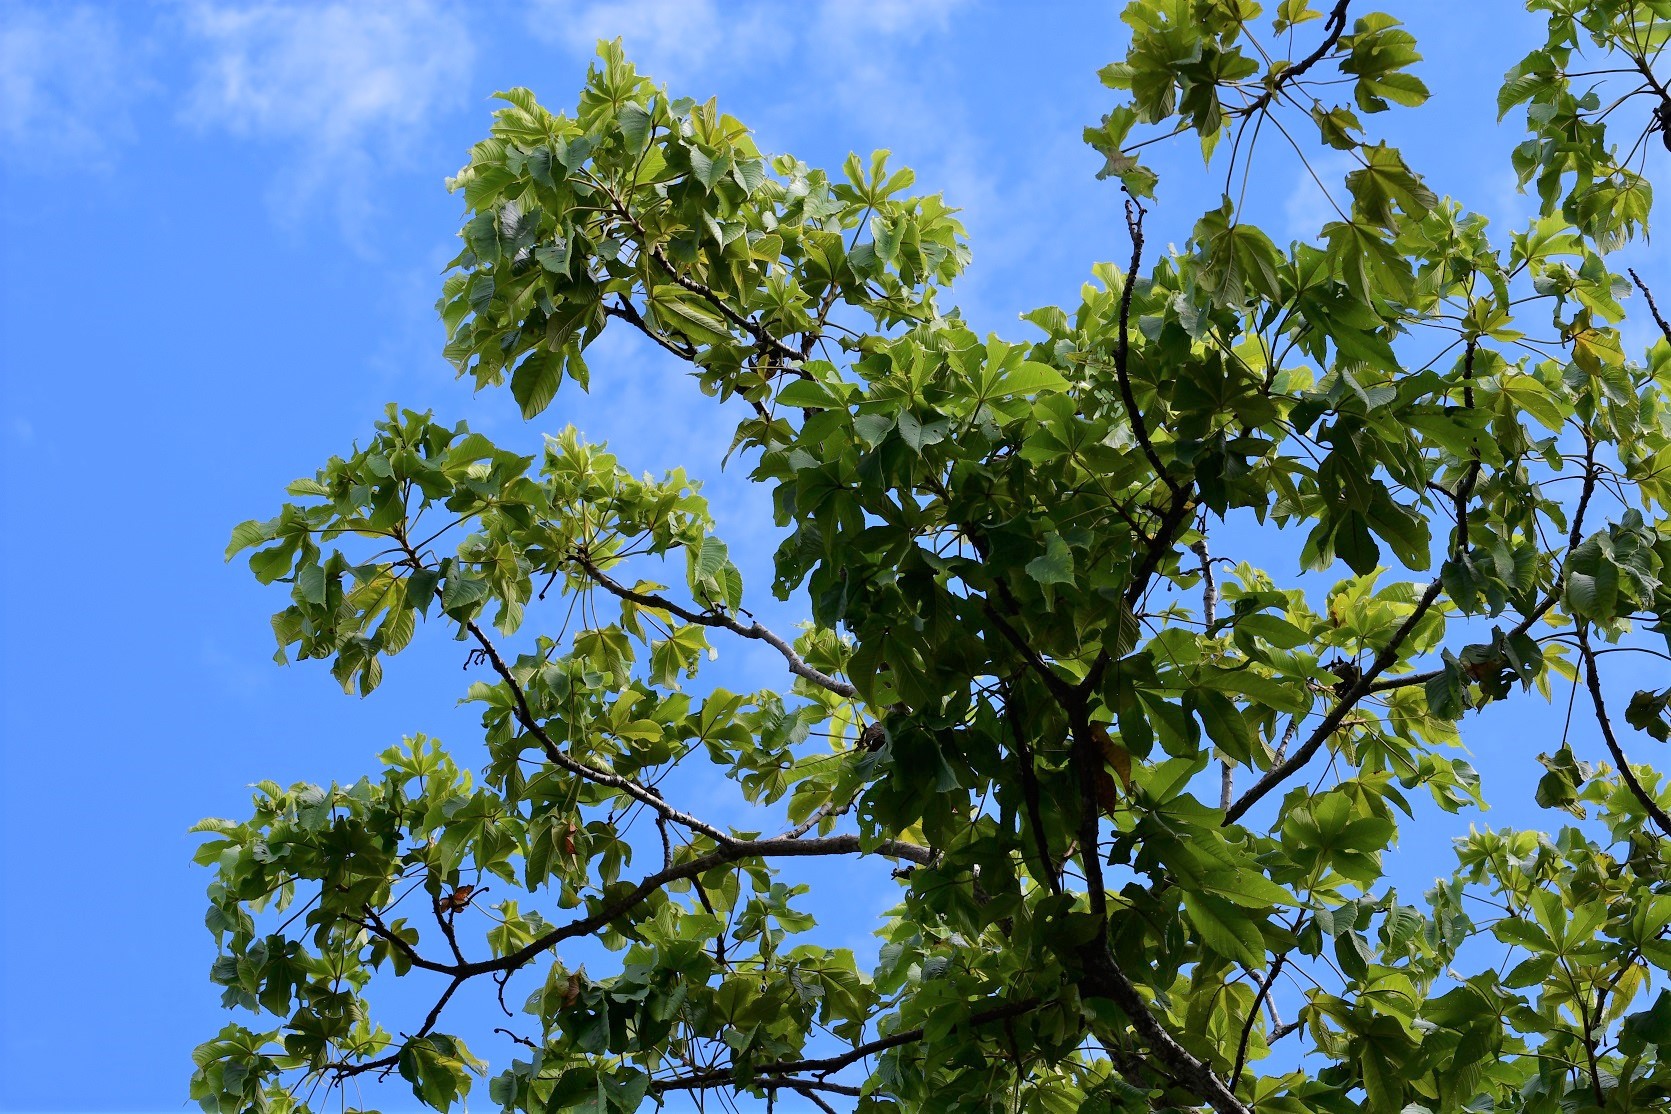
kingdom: Plantae
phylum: Tracheophyta
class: Magnoliopsida
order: Malvales
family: Cochlospermaceae
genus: Cochlospermum
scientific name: Cochlospermum vitifolium
